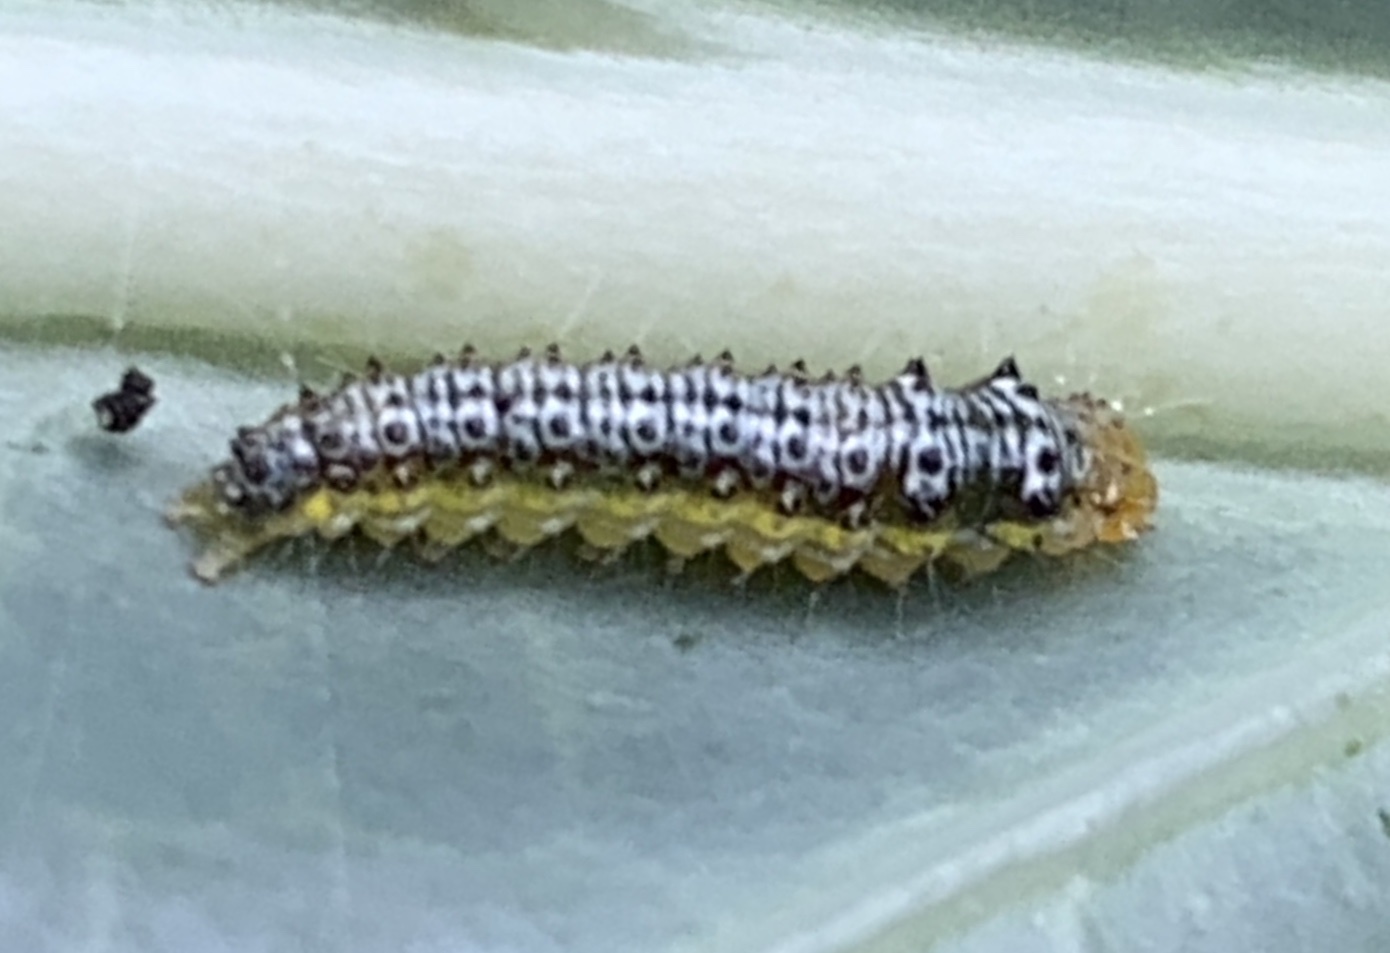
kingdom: Animalia
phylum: Arthropoda
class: Insecta
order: Lepidoptera
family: Crambidae
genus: Evergestis
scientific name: Evergestis rimosalis
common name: Cross-striped cabbageworm moth
